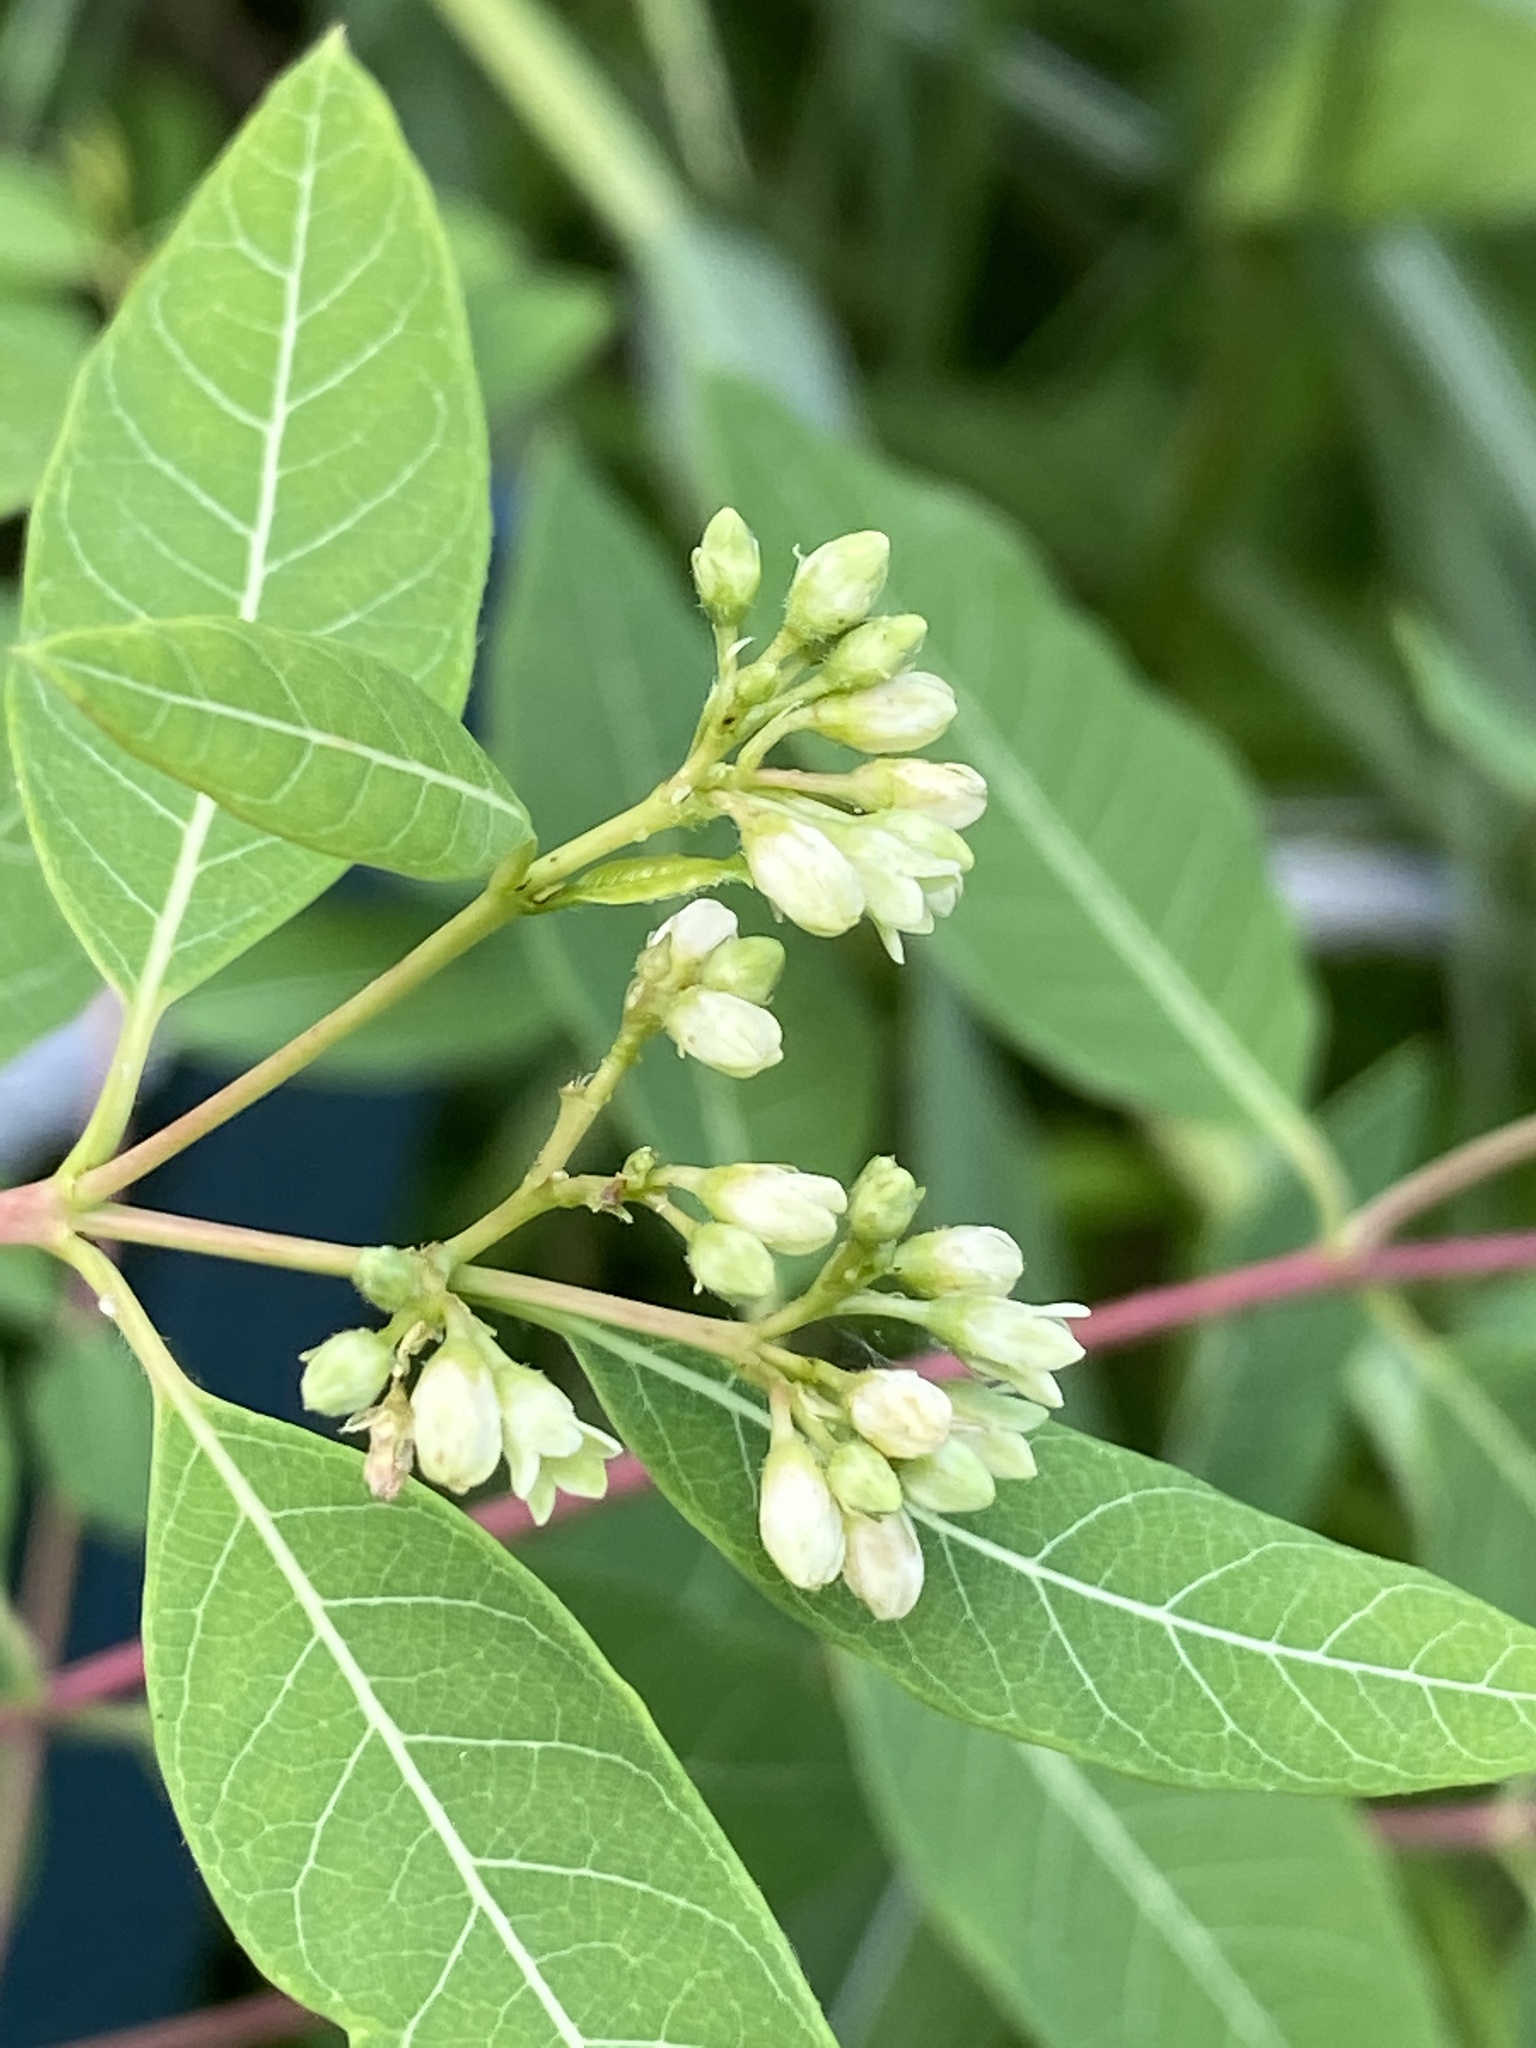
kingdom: Plantae
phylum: Tracheophyta
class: Magnoliopsida
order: Gentianales
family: Apocynaceae
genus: Apocynum
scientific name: Apocynum cannabinum
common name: Hemp dogbane
